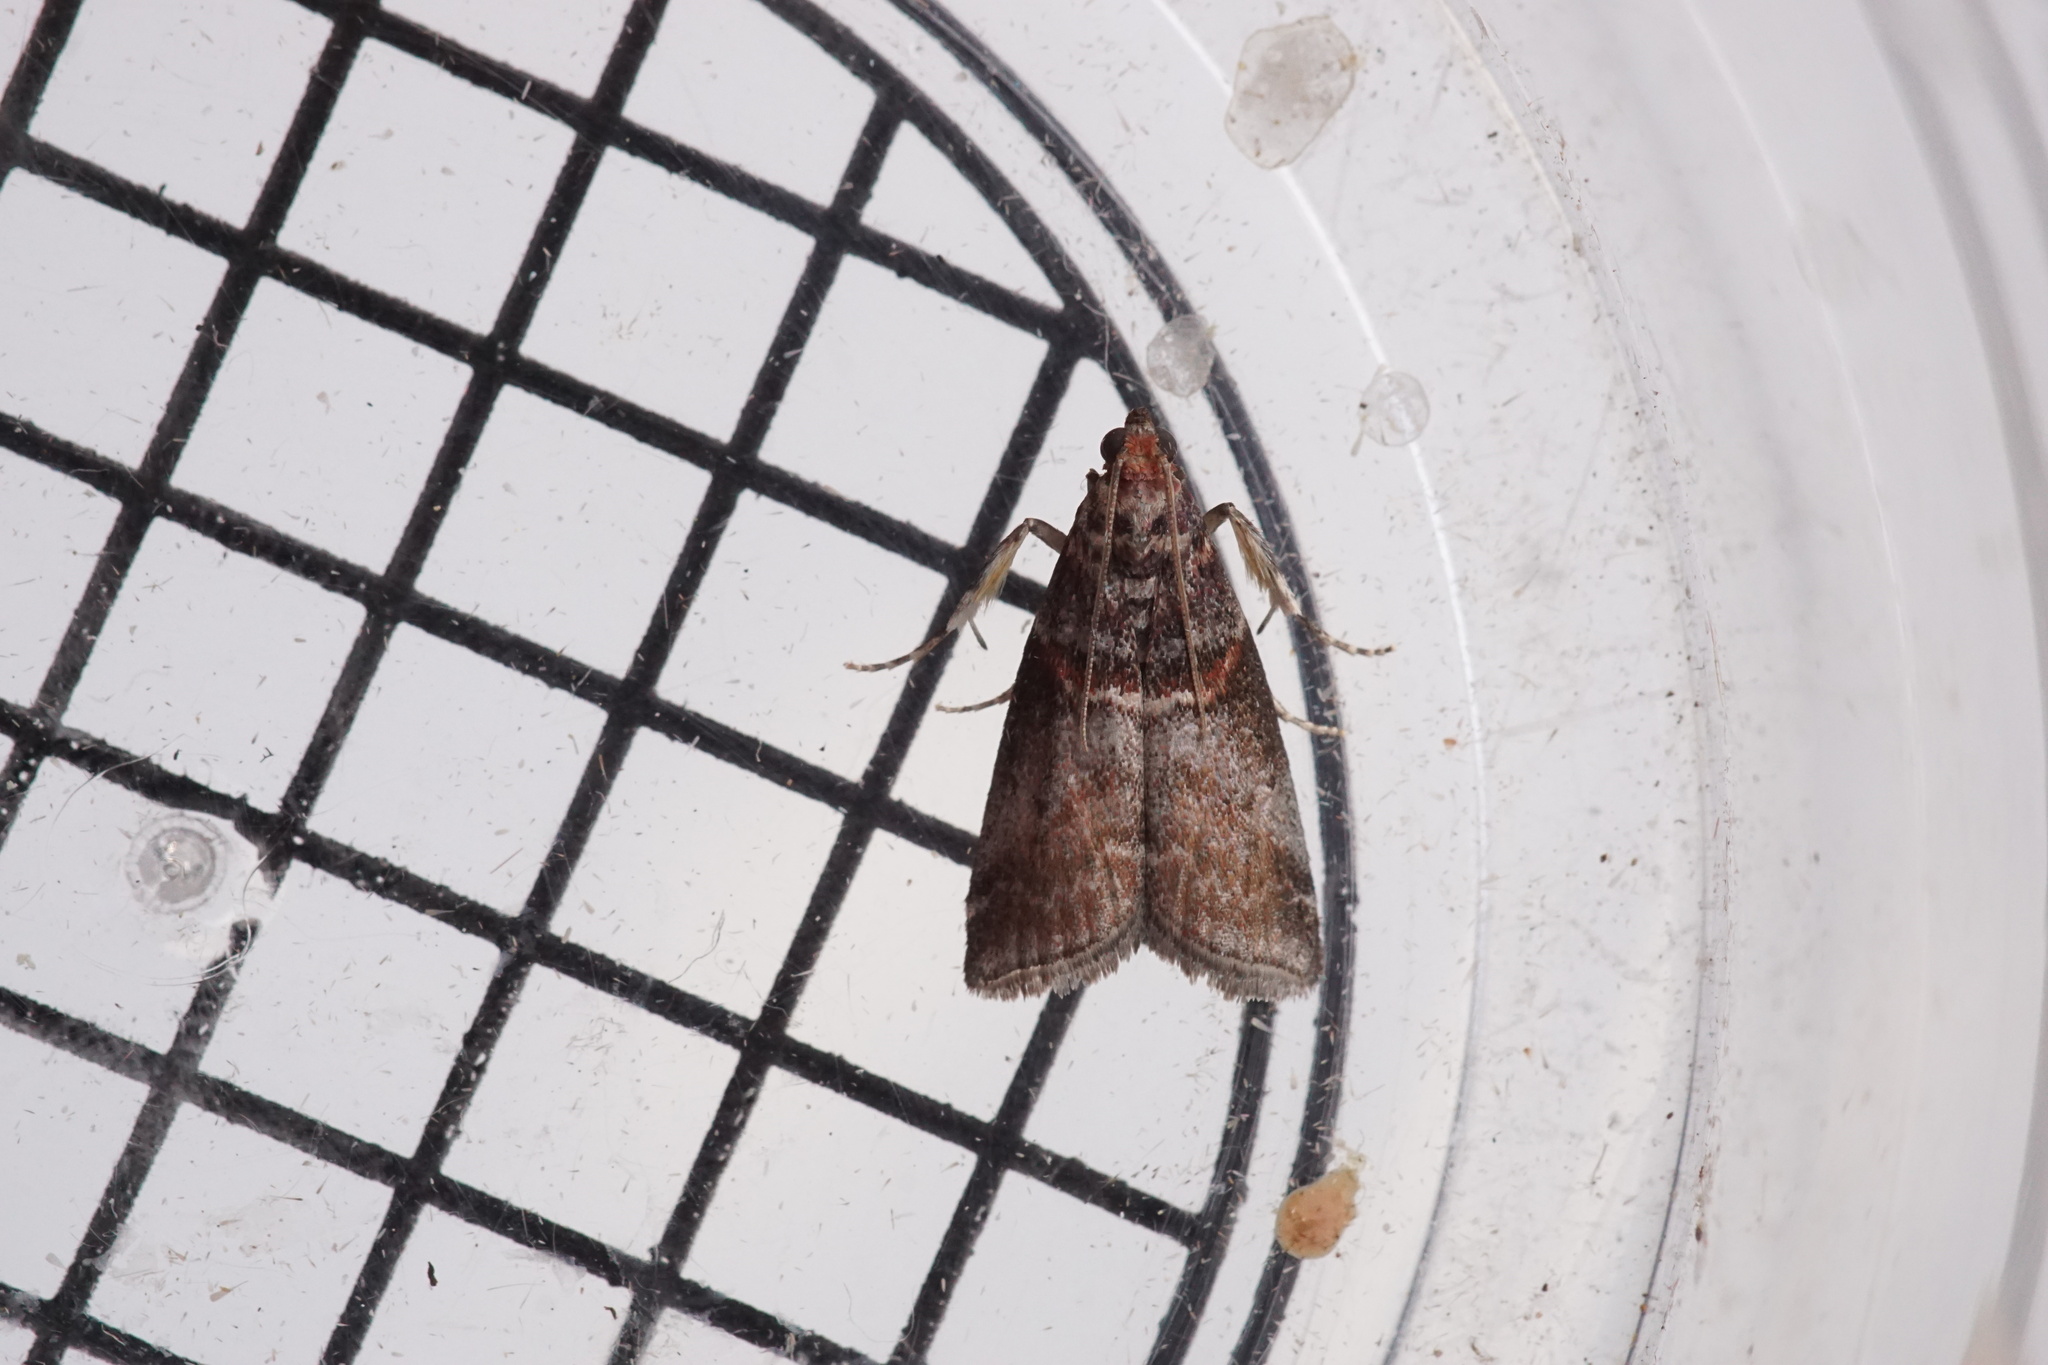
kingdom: Animalia
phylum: Arthropoda
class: Insecta
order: Lepidoptera
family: Pyralidae
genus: Acrobasis
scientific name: Acrobasis advenella
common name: Grey knot-horn
